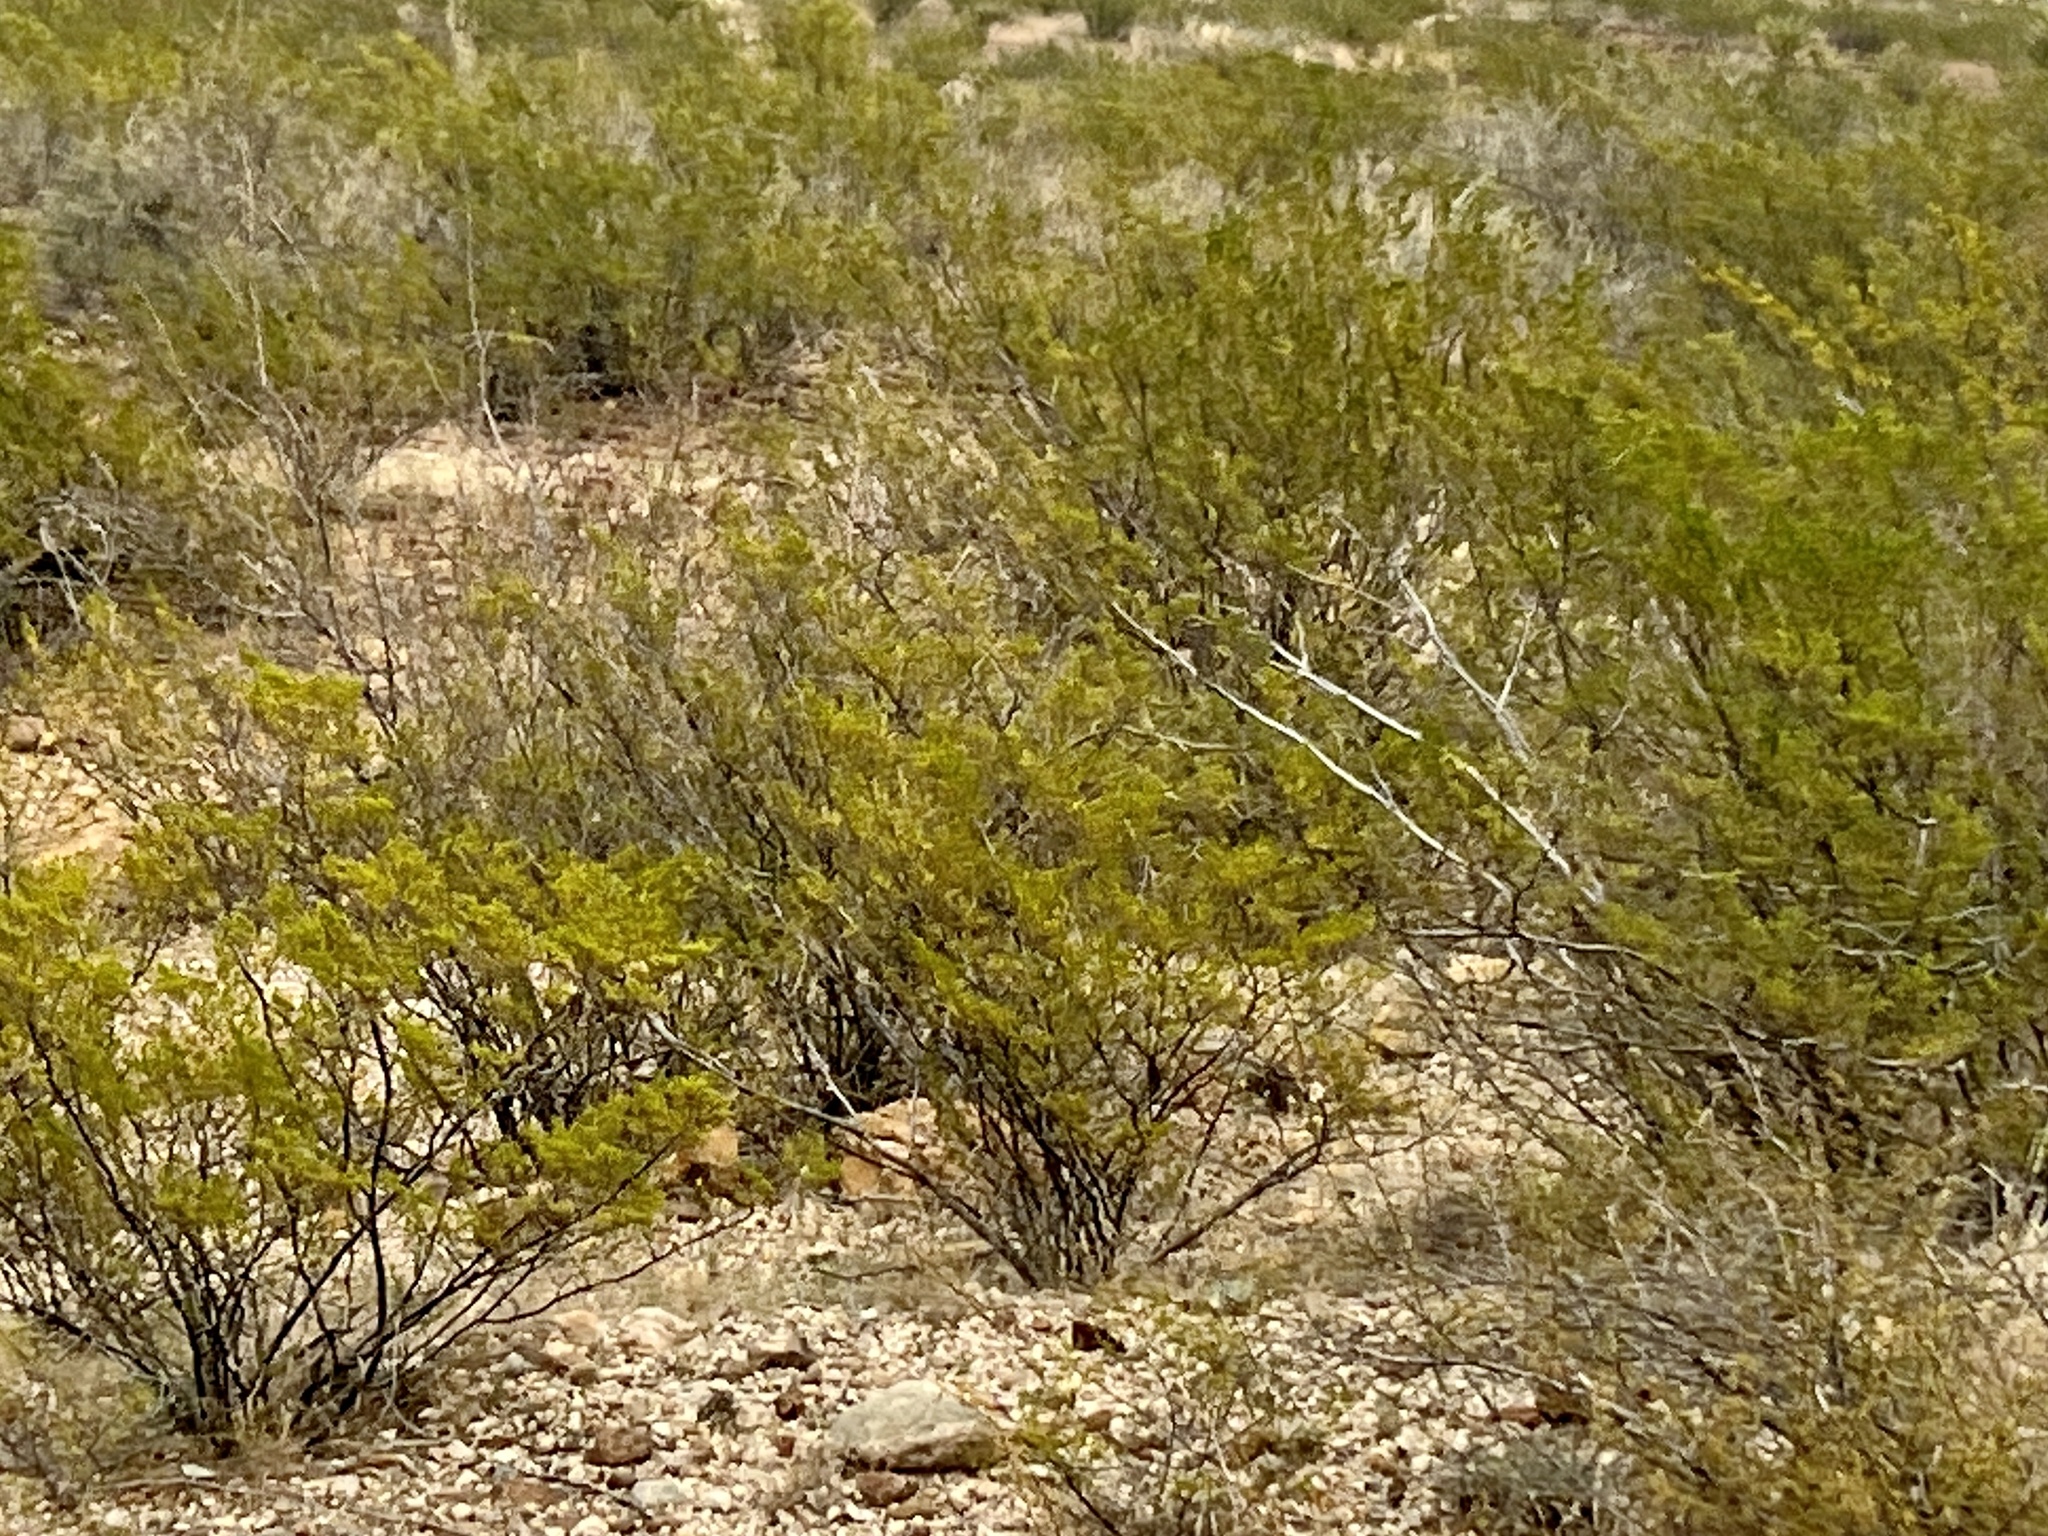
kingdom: Plantae
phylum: Tracheophyta
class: Magnoliopsida
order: Zygophyllales
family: Zygophyllaceae
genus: Larrea
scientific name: Larrea tridentata
